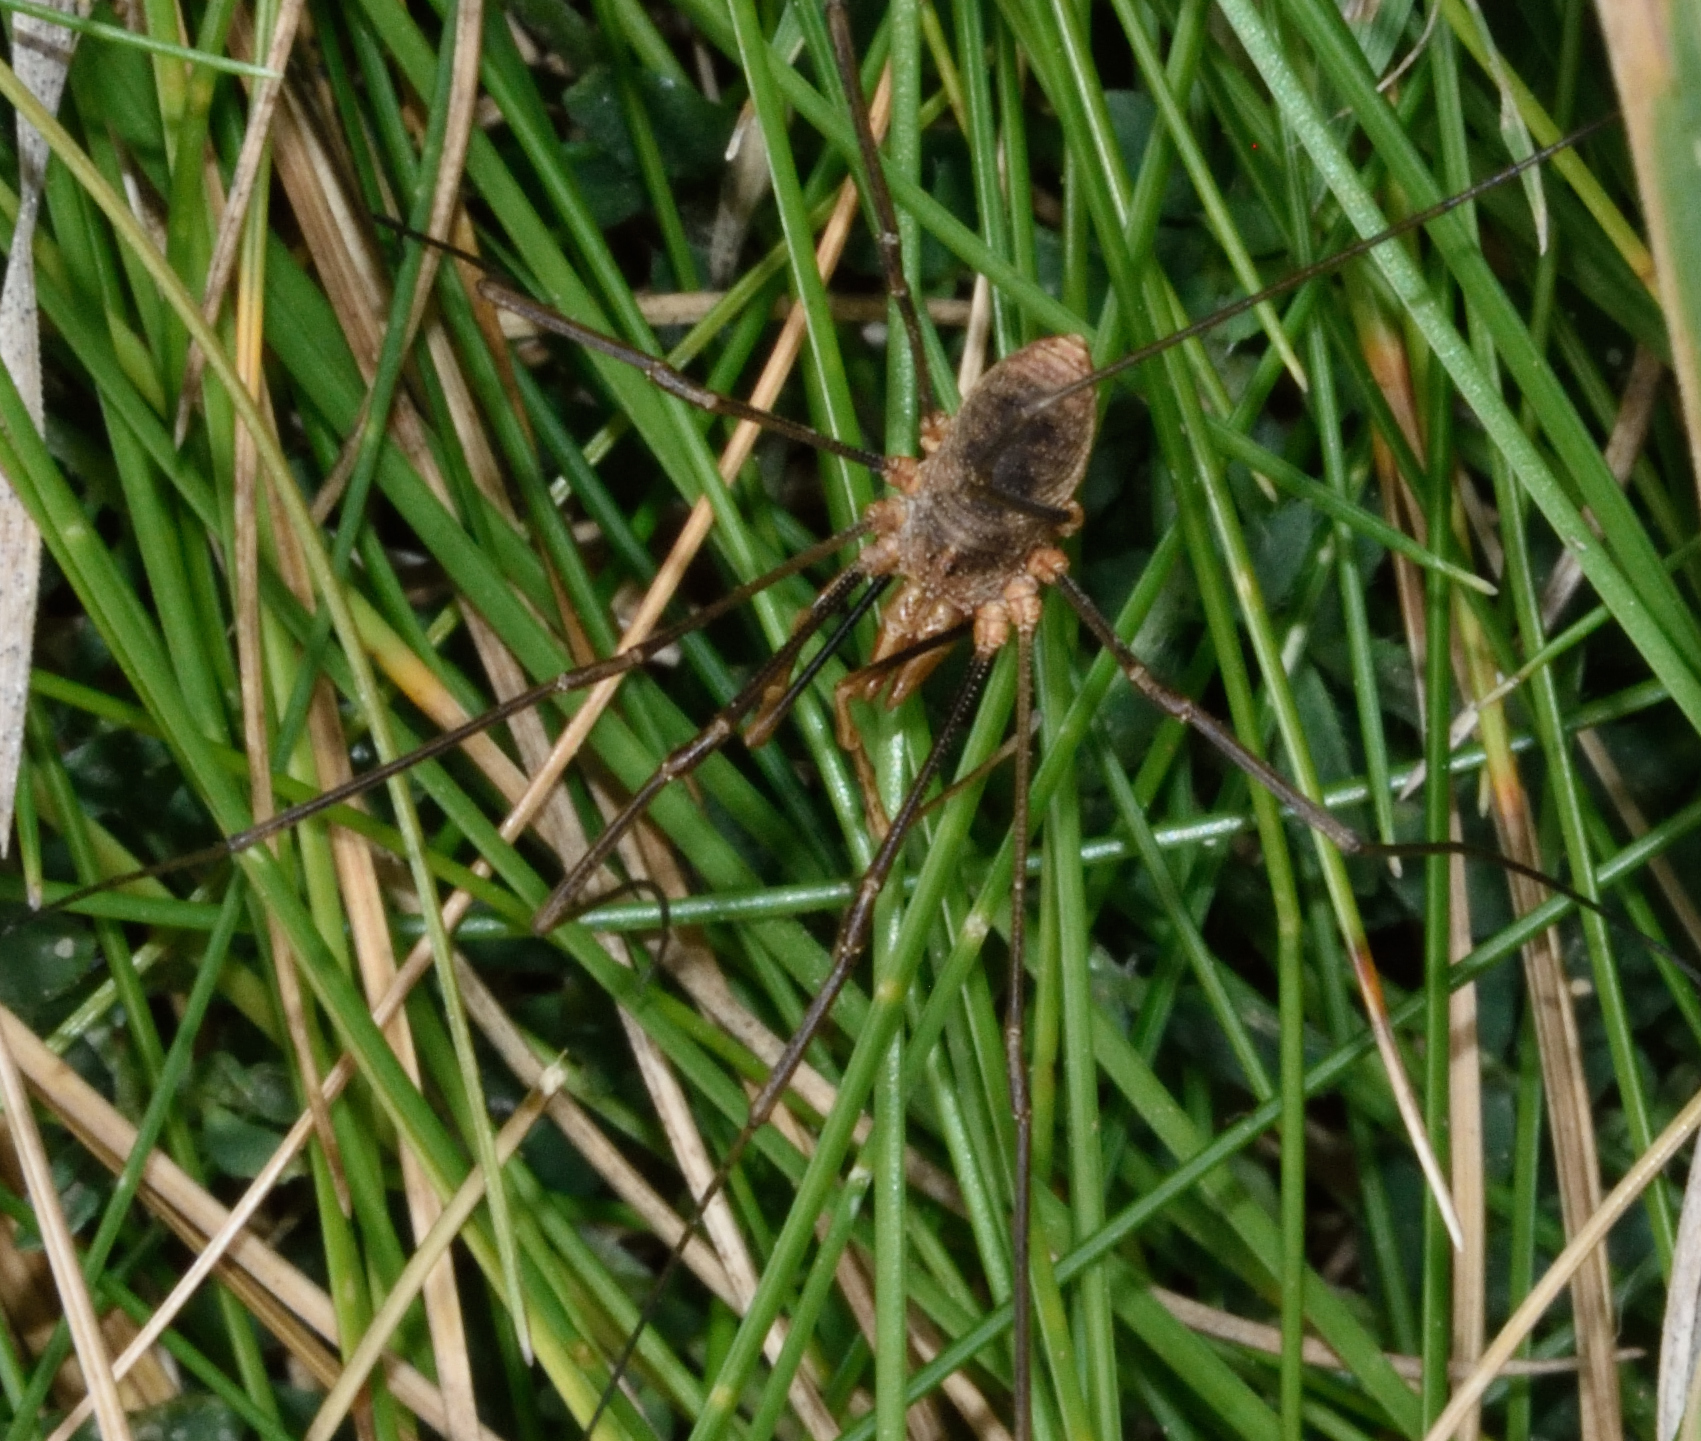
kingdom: Animalia
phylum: Arthropoda
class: Arachnida
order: Opiliones
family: Phalangiidae
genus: Phalangium
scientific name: Phalangium opilio
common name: Daddy longleg
